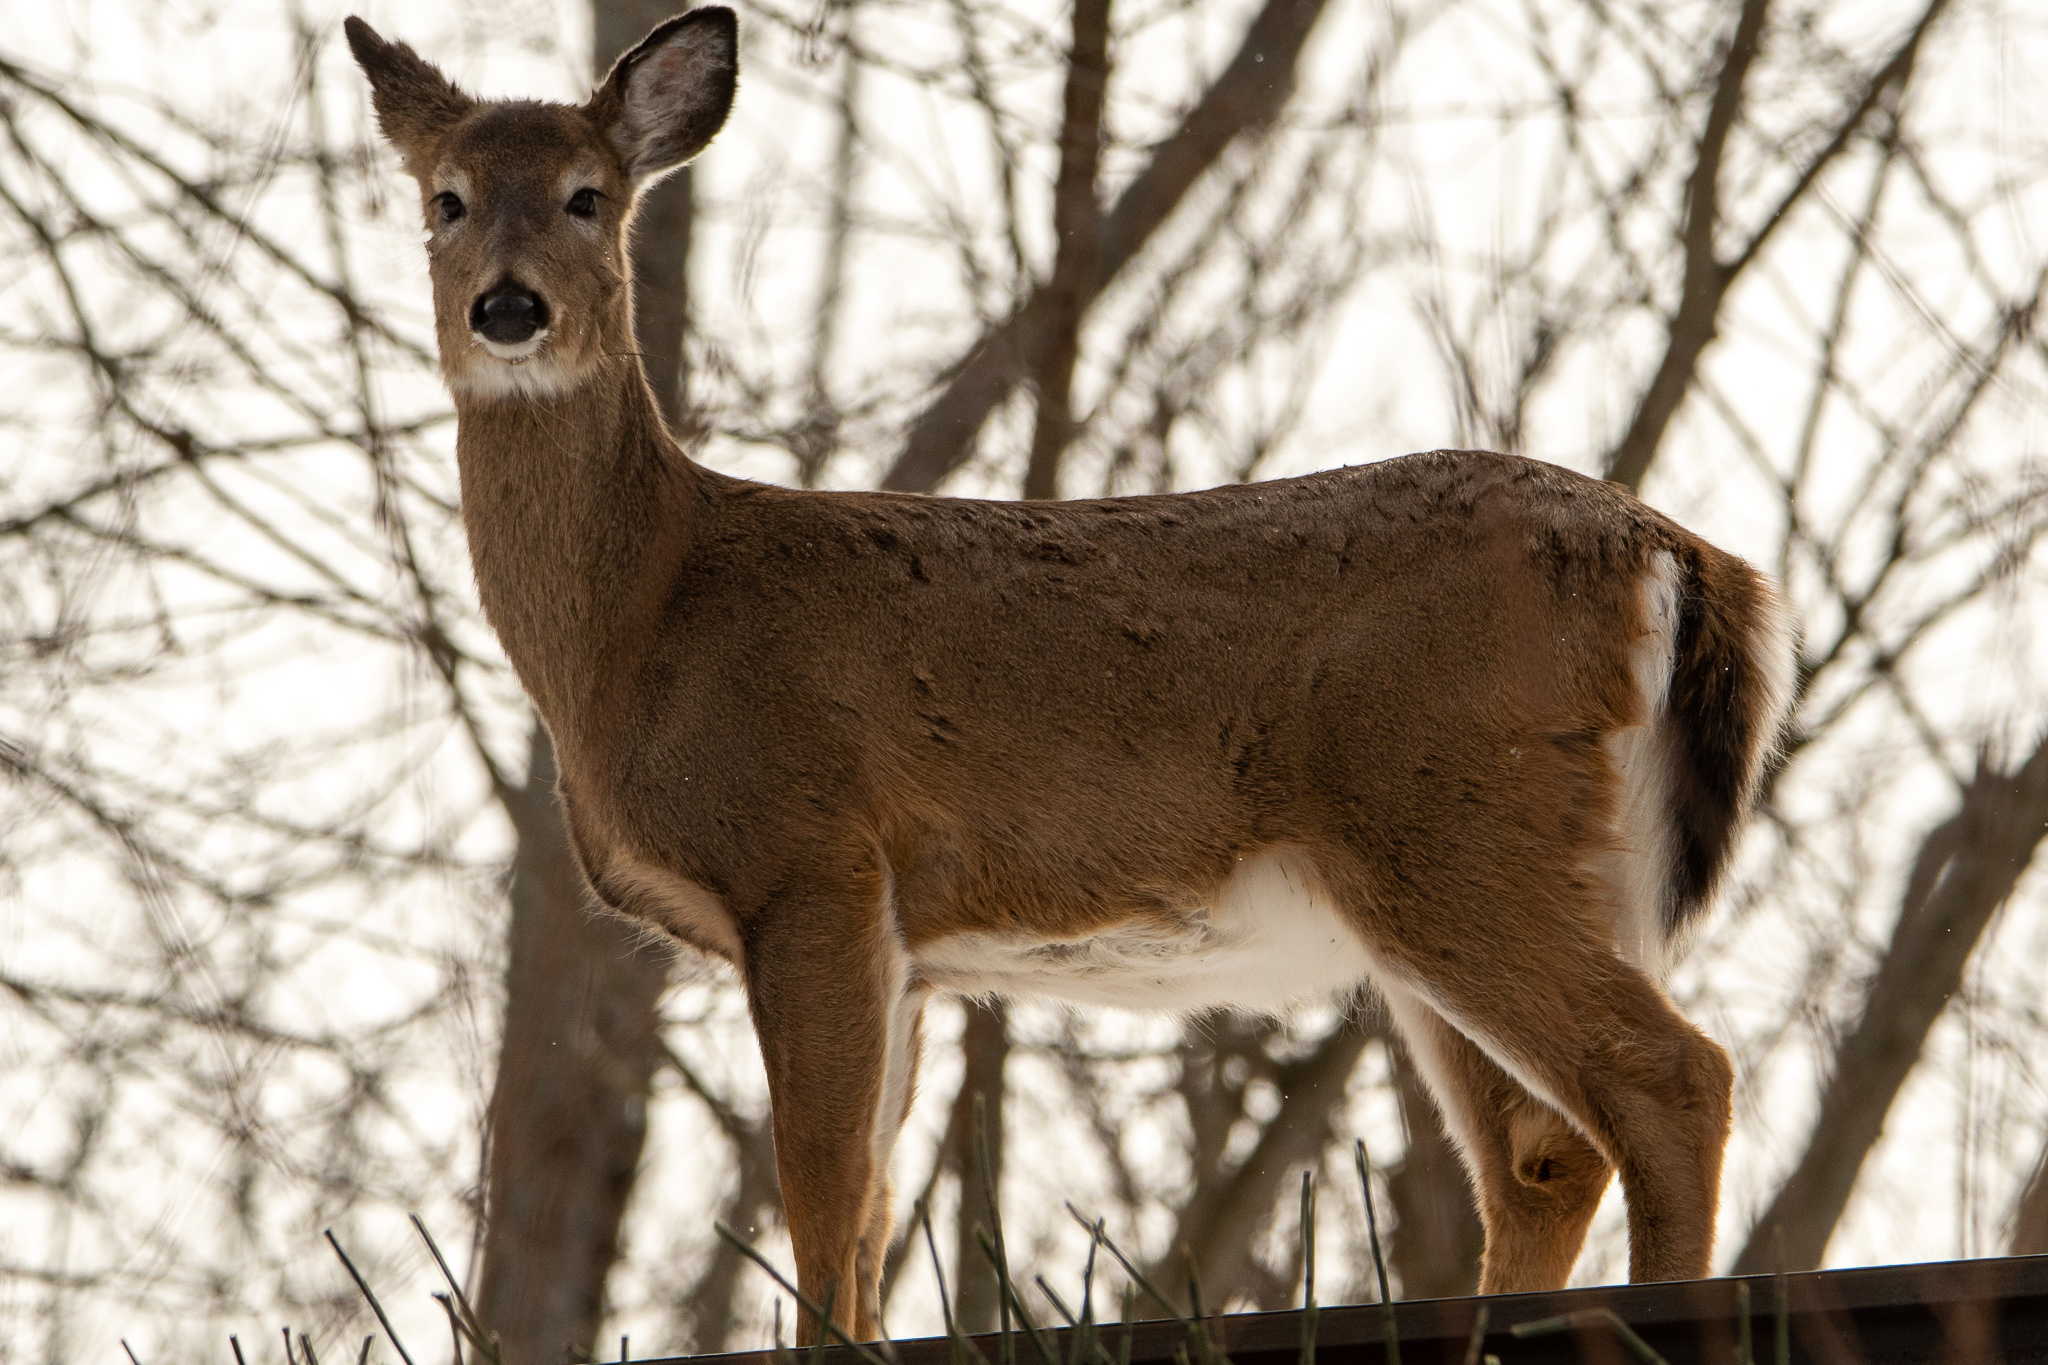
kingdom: Animalia
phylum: Chordata
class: Mammalia
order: Artiodactyla
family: Cervidae
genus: Odocoileus
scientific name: Odocoileus virginianus
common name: White-tailed deer
